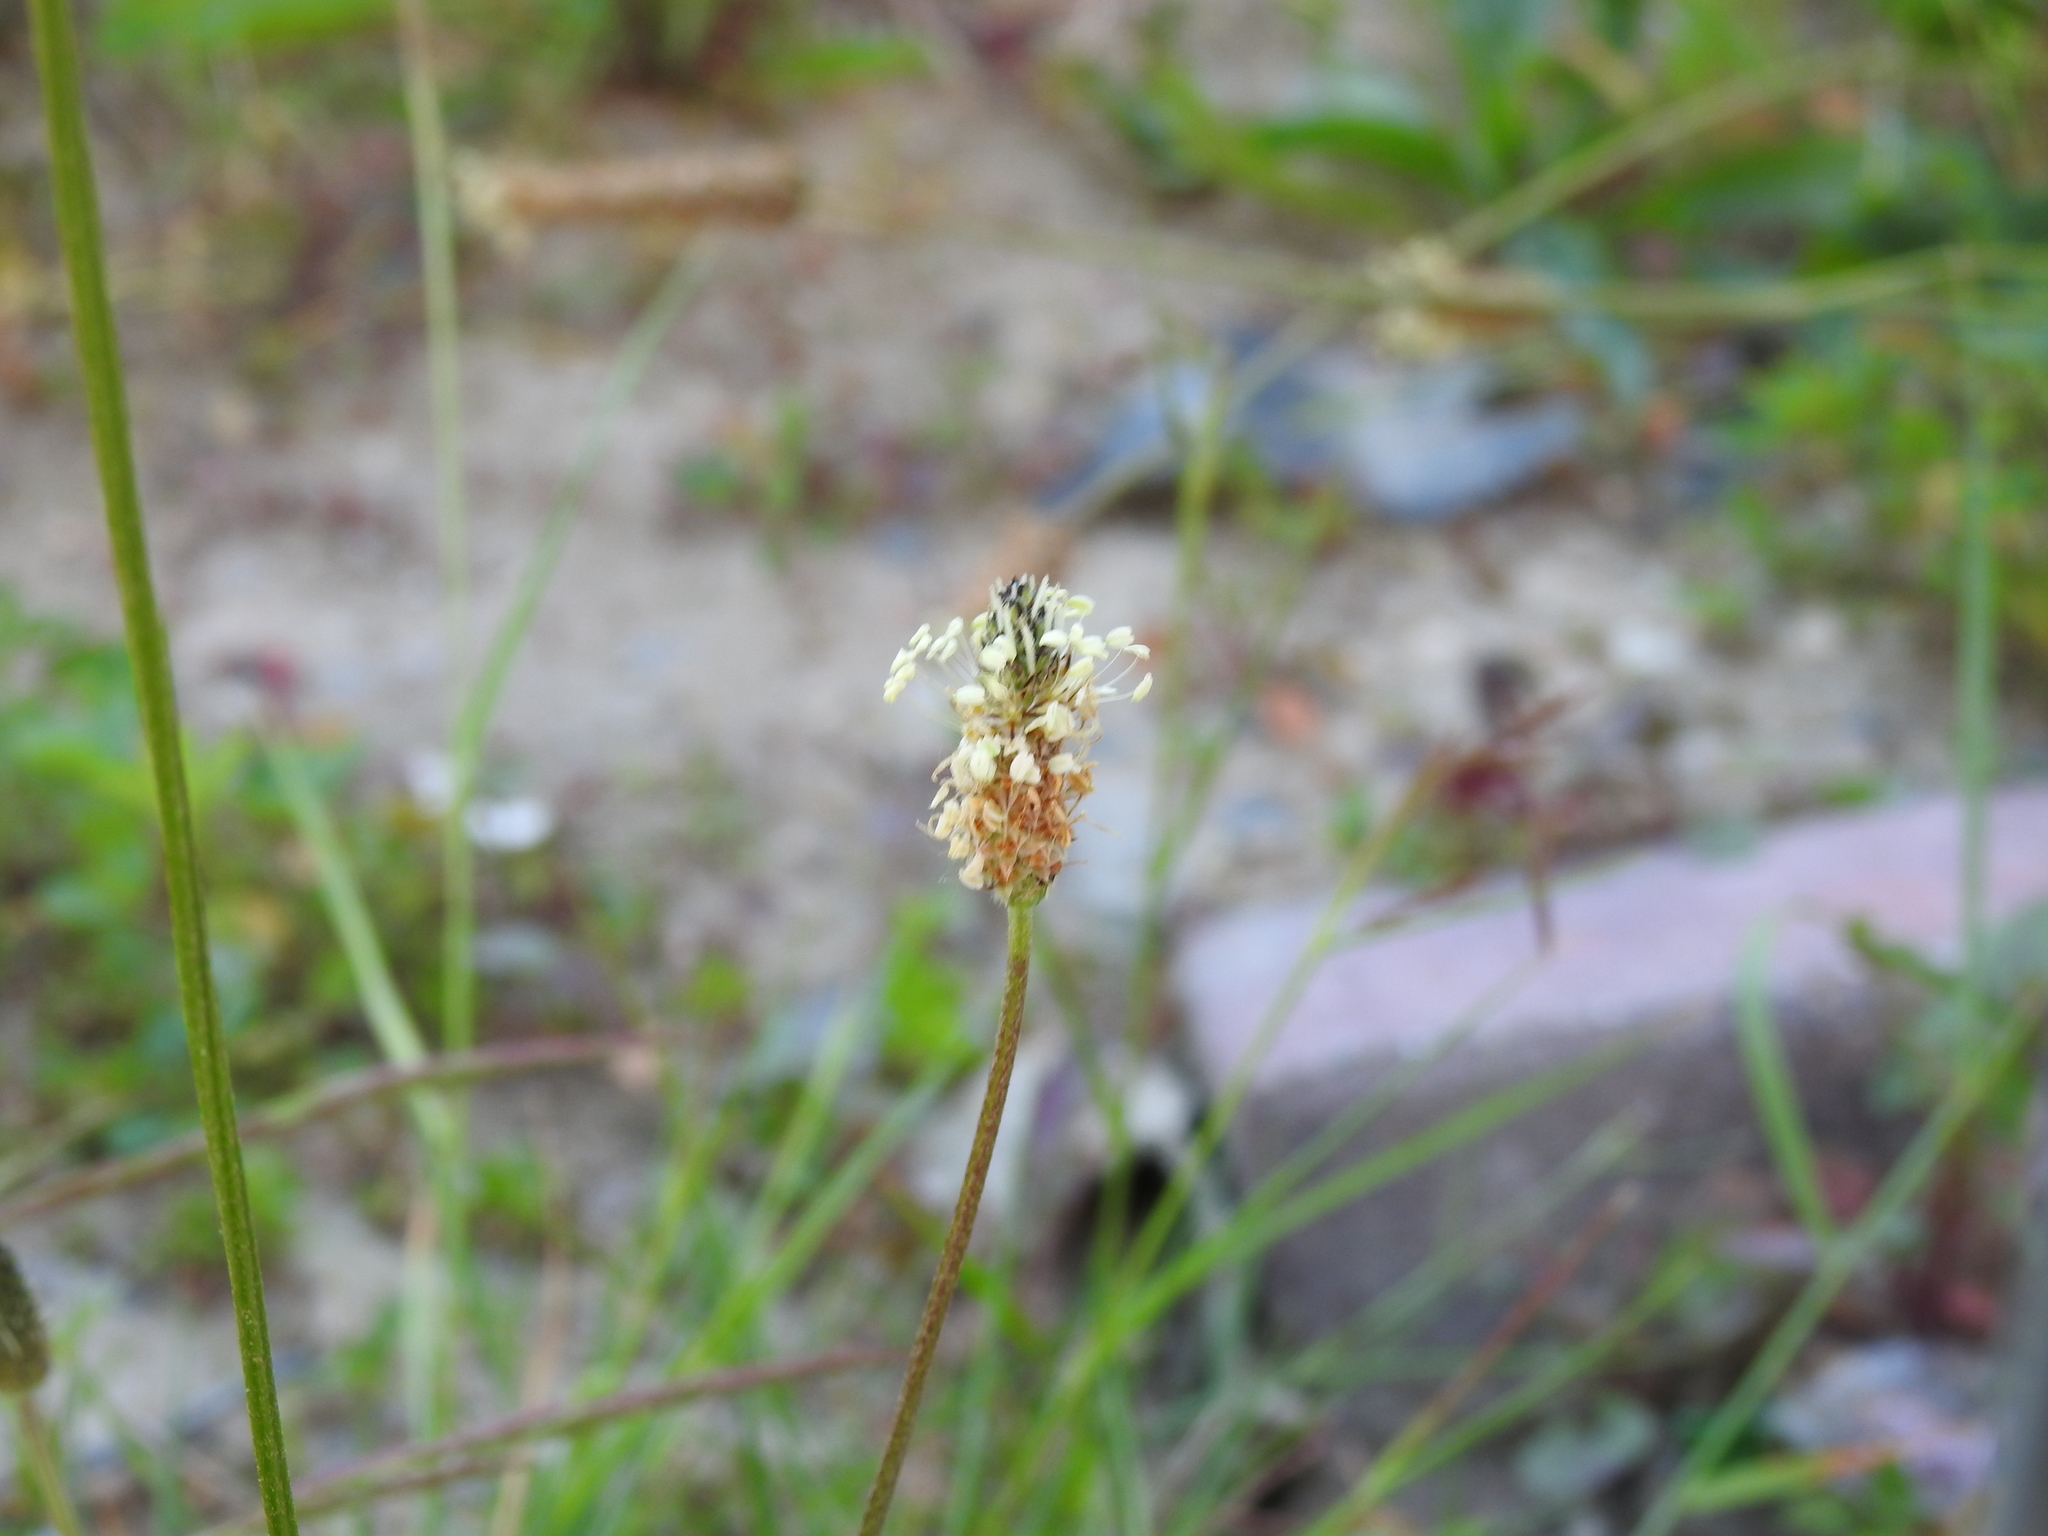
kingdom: Plantae
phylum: Tracheophyta
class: Magnoliopsida
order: Lamiales
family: Plantaginaceae
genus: Plantago
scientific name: Plantago lanceolata
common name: Ribwort plantain
